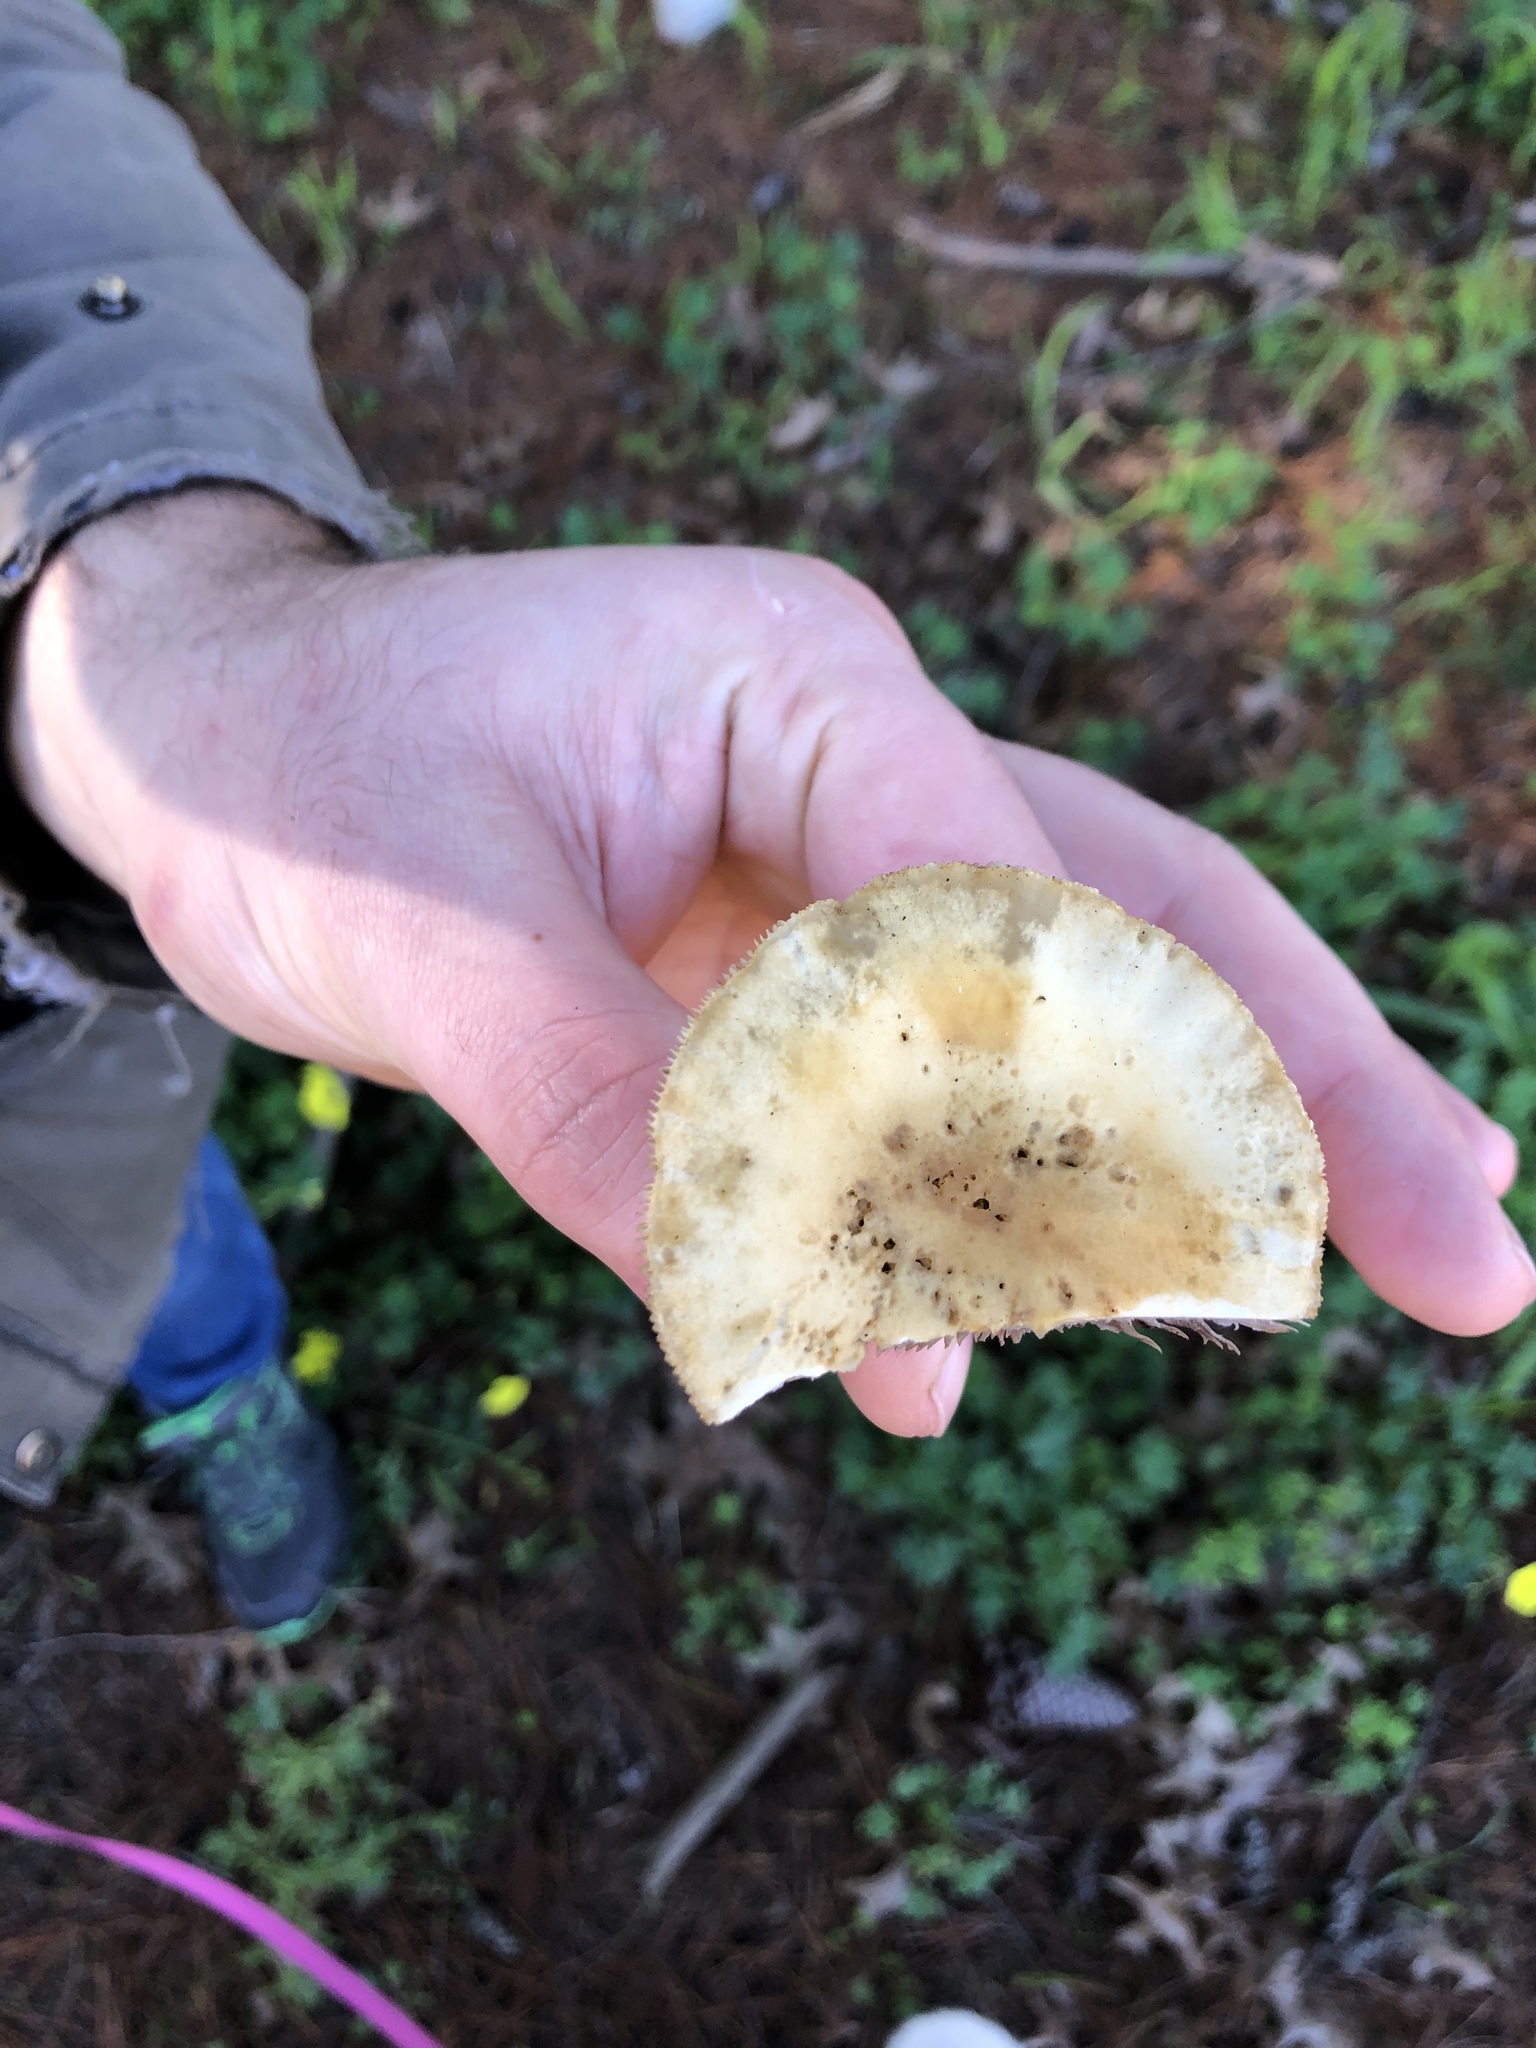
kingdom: Fungi
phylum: Basidiomycota
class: Agaricomycetes
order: Agaricales
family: Strophariaceae
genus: Agrocybe
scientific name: Agrocybe praecox
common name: Spring fieldcap
